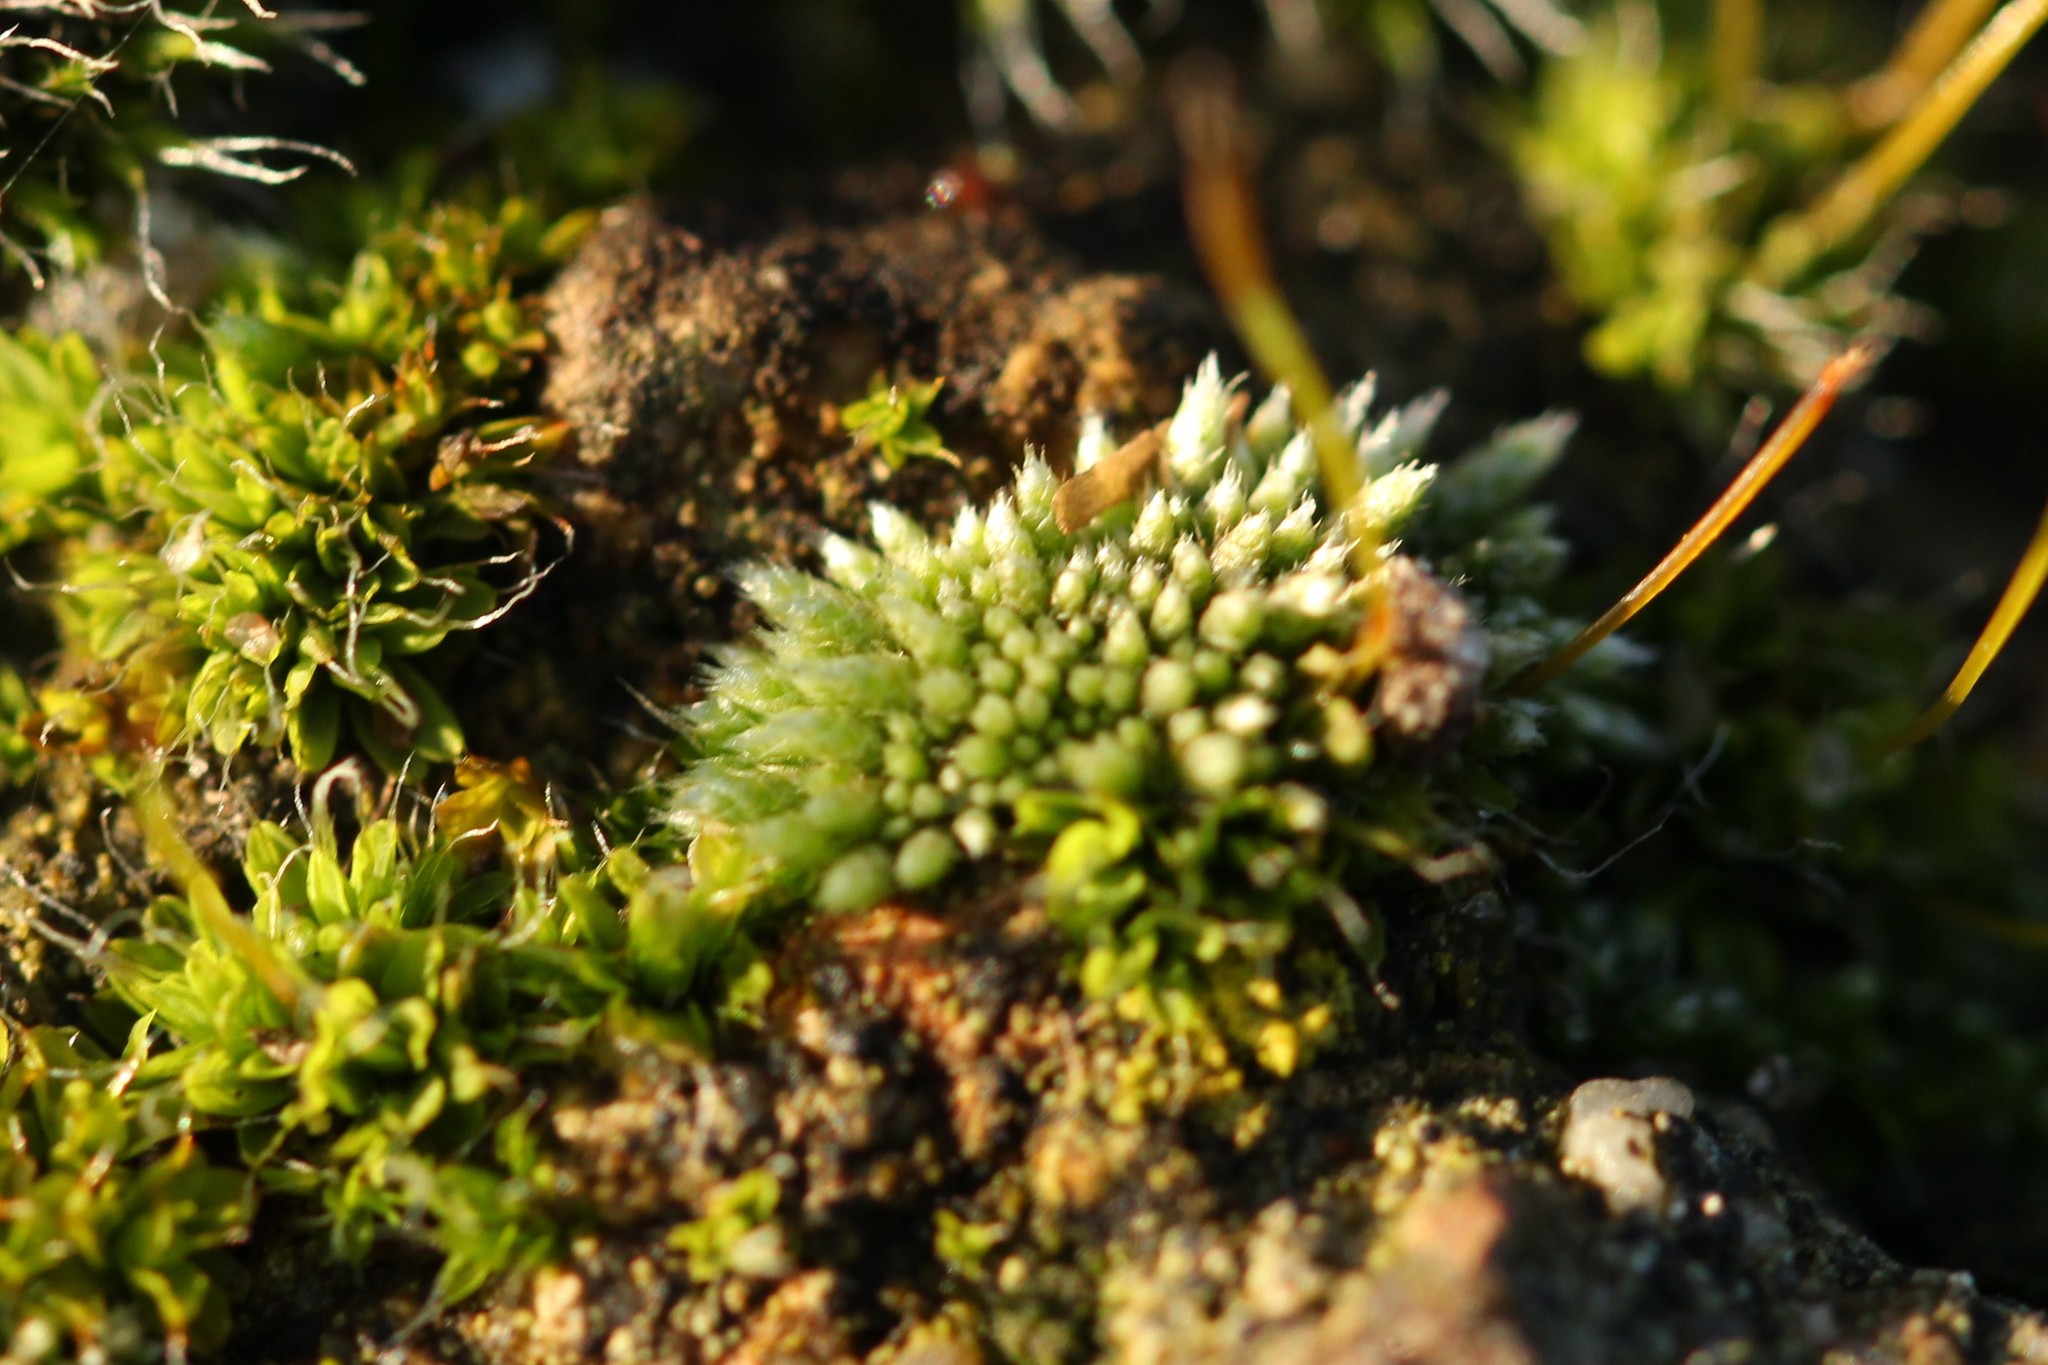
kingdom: Plantae
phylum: Bryophyta
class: Bryopsida
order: Bryales
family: Bryaceae
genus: Bryum
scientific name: Bryum argenteum
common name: Silver-moss
